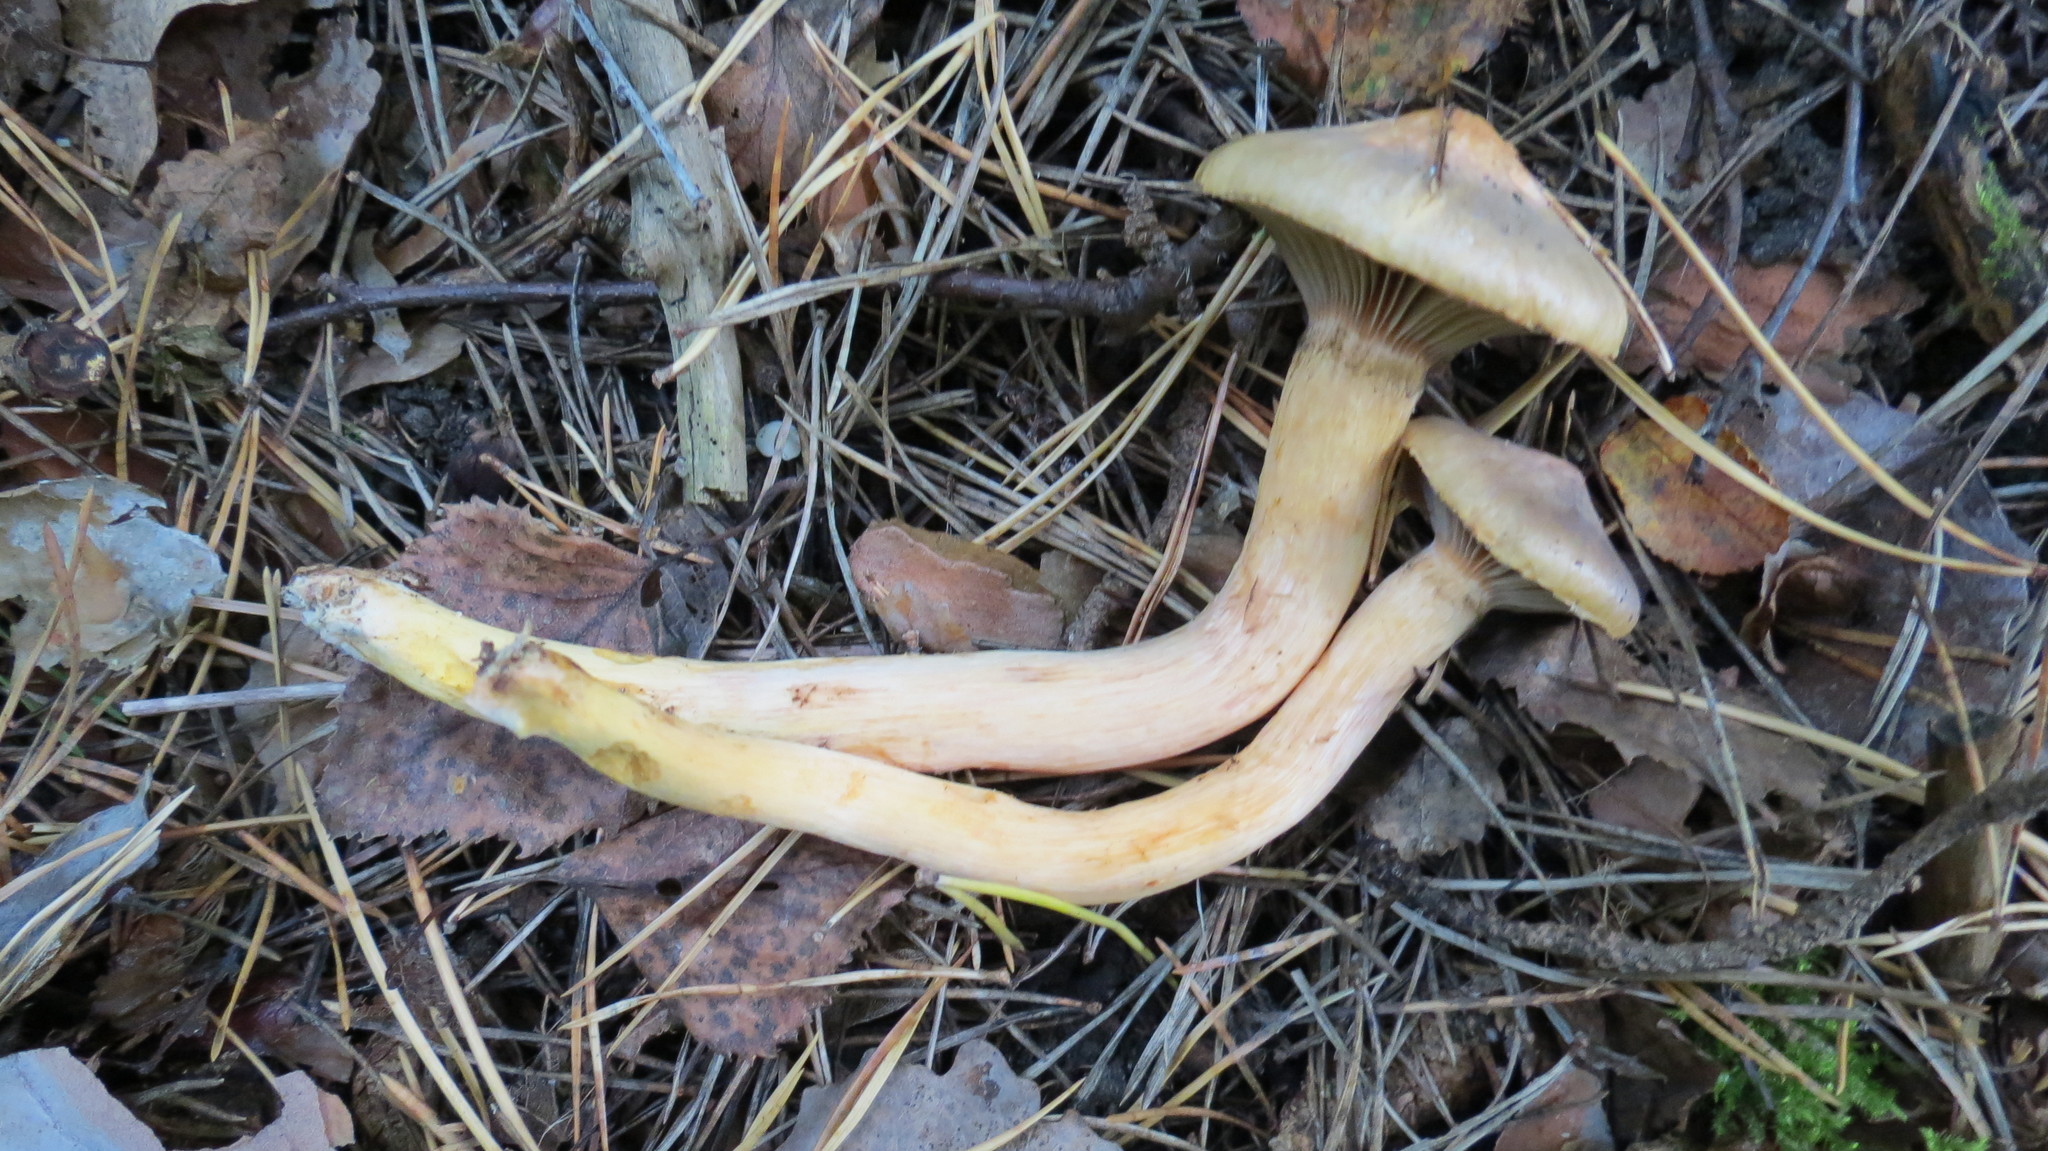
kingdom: Fungi
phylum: Basidiomycota
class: Agaricomycetes
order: Boletales
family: Gomphidiaceae
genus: Chroogomphus
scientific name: Chroogomphus rutilus
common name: Copper spike
